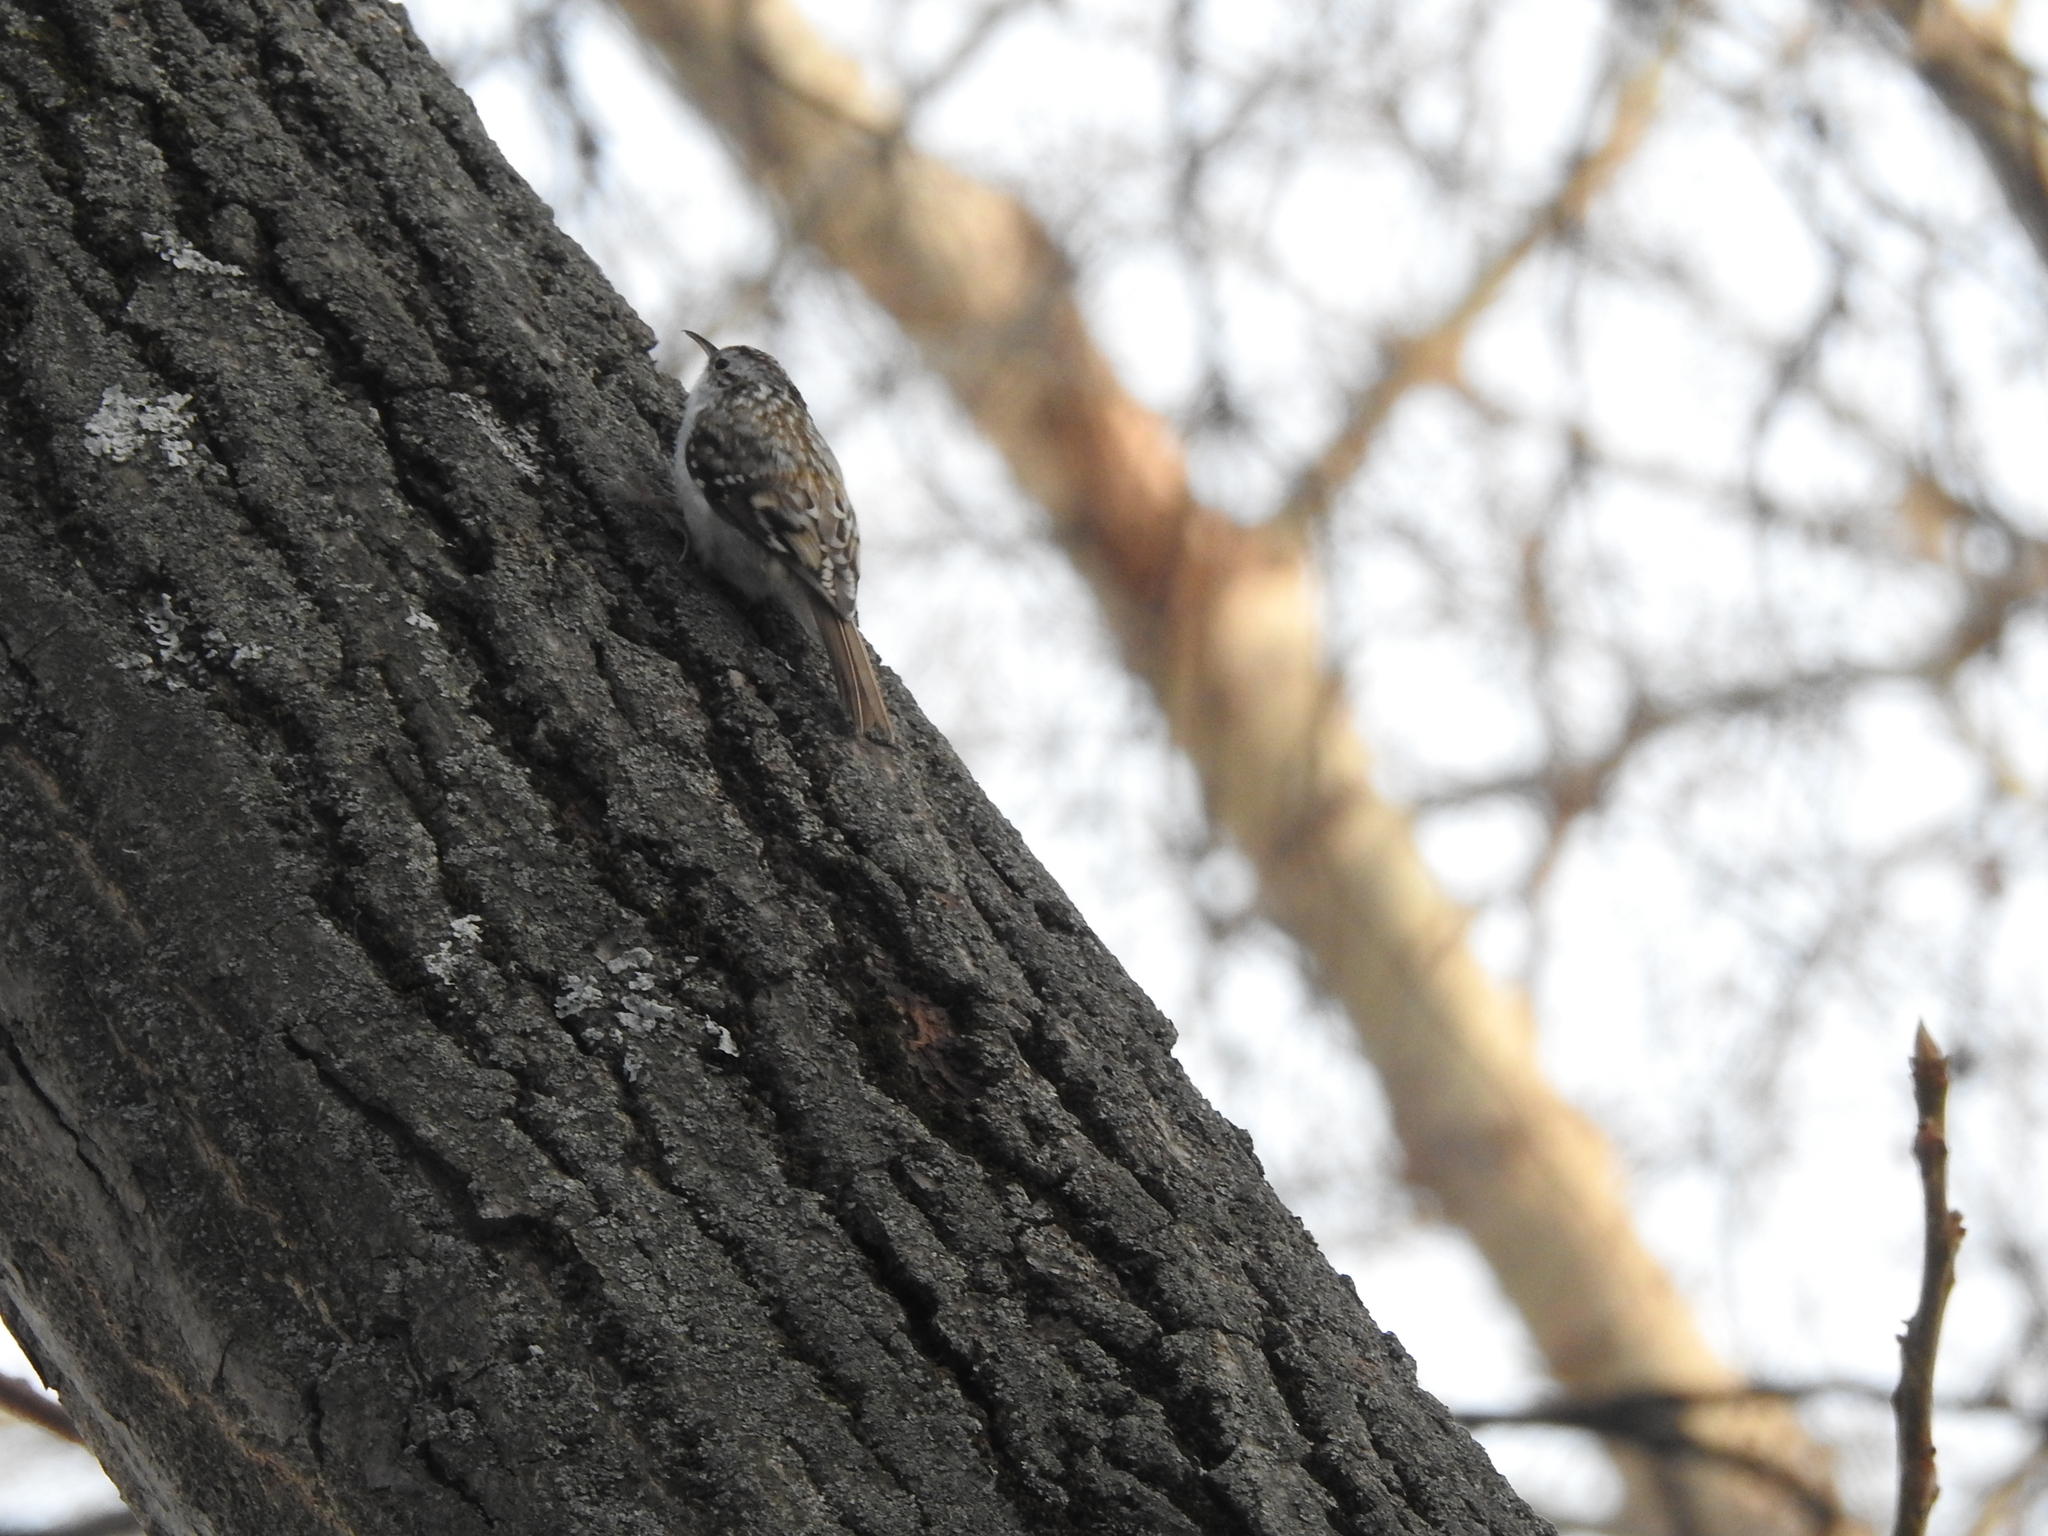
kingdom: Animalia
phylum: Chordata
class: Aves
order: Passeriformes
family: Certhiidae
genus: Certhia
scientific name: Certhia familiaris
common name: Eurasian treecreeper
